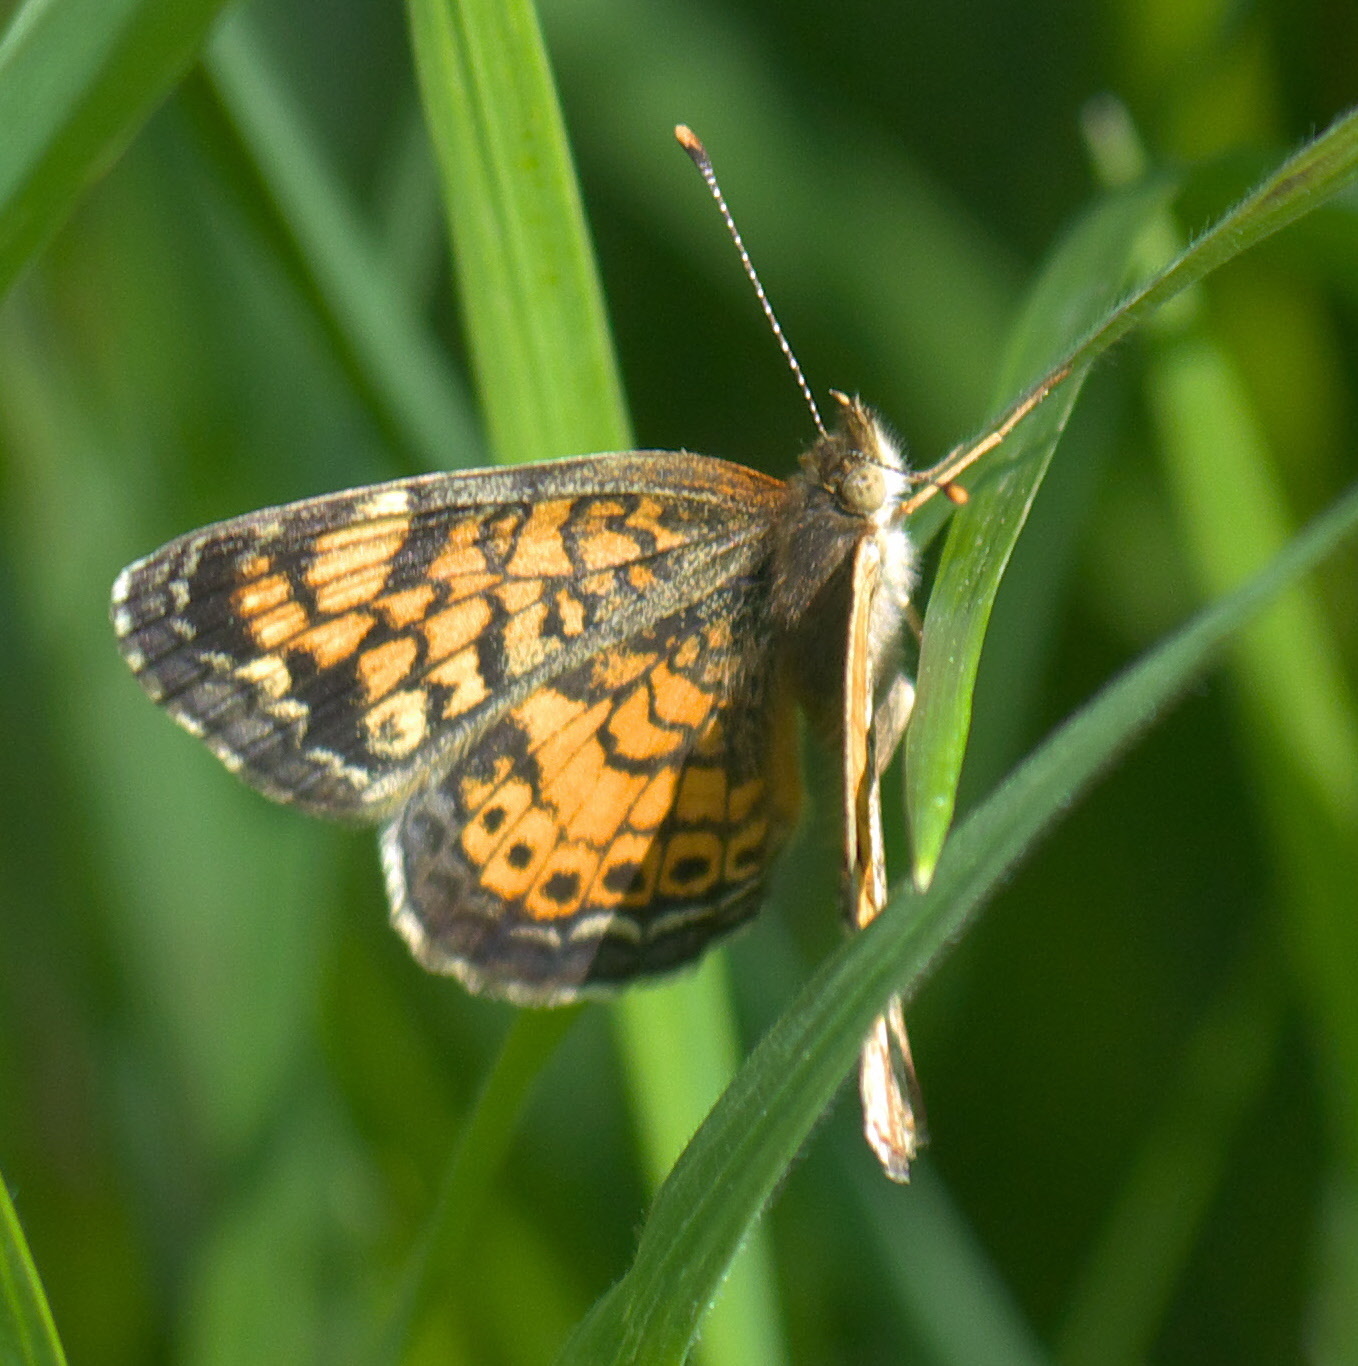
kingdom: Animalia
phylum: Arthropoda
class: Insecta
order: Lepidoptera
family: Nymphalidae
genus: Phyciodes
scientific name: Phyciodes tharos
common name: Pearl crescent
